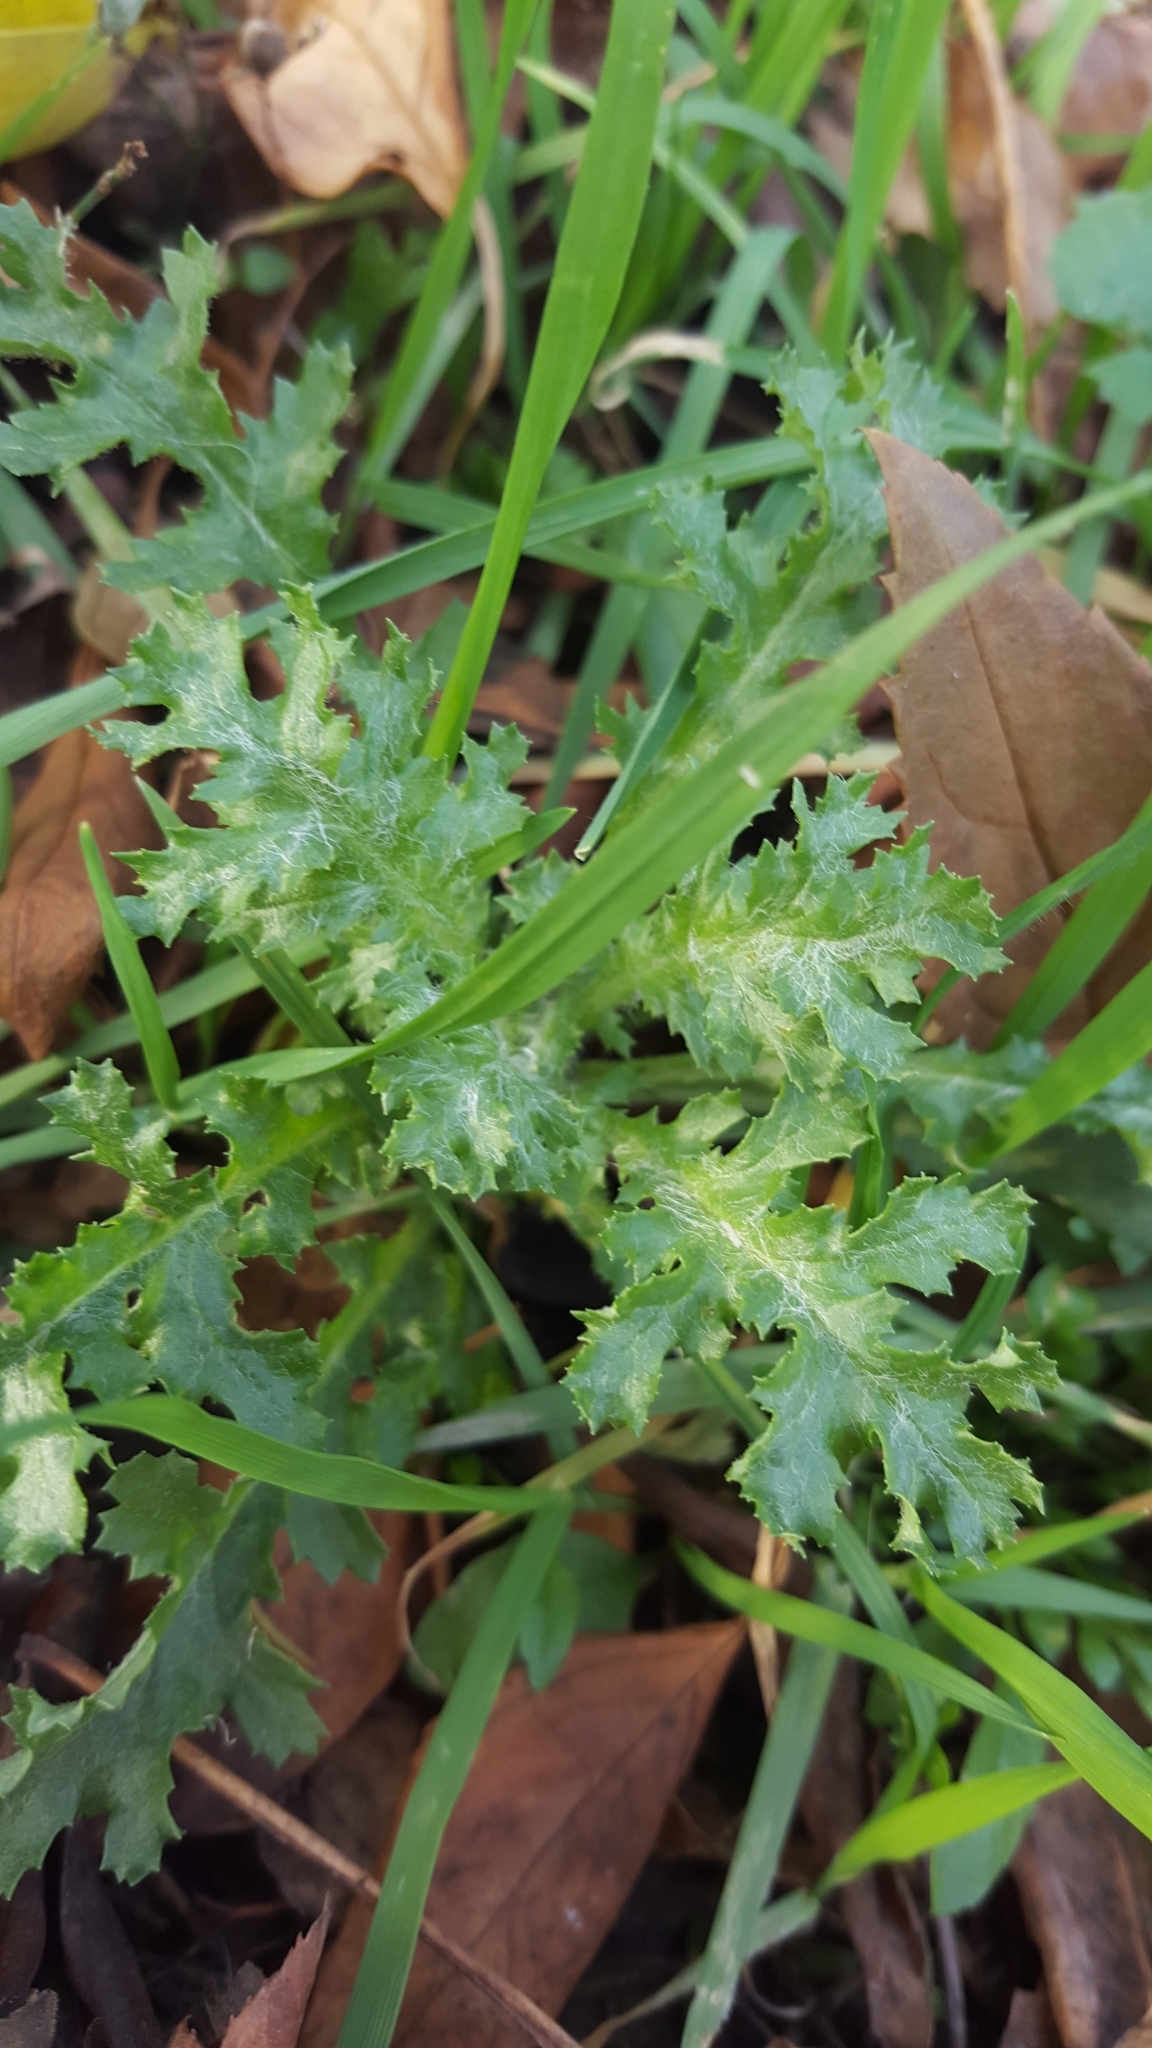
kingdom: Plantae
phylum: Tracheophyta
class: Magnoliopsida
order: Asterales
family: Asteraceae
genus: Senecio
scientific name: Senecio vulgaris
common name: Old-man-in-the-spring
